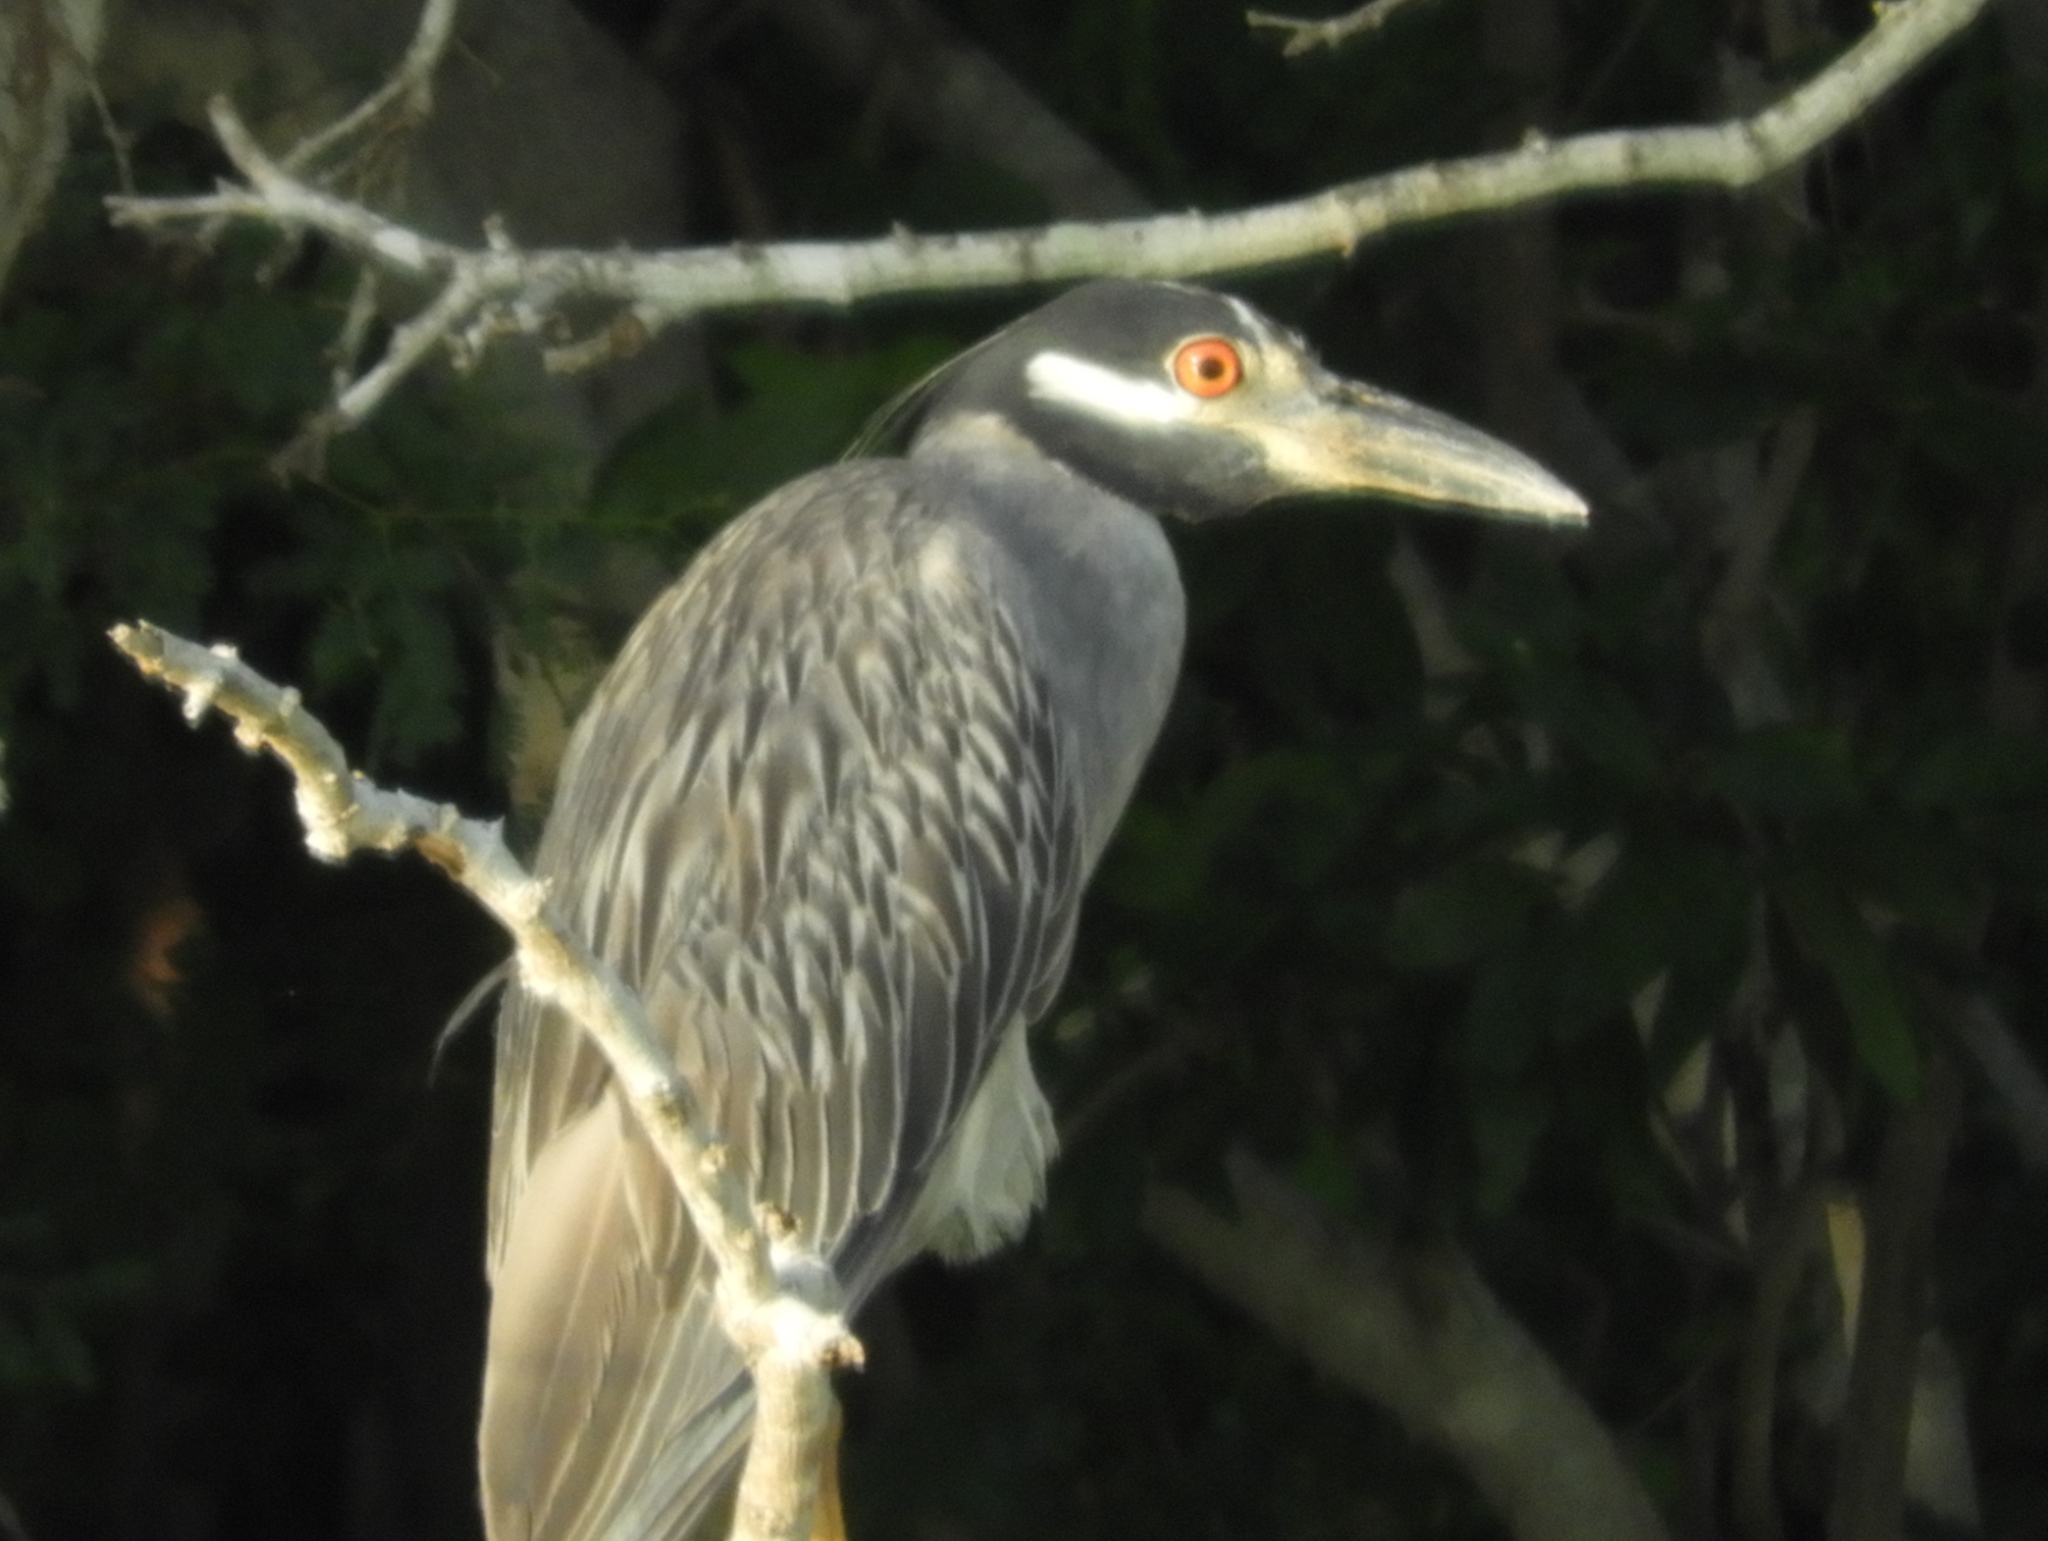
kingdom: Animalia
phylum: Chordata
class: Aves
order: Pelecaniformes
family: Ardeidae
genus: Nyctanassa
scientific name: Nyctanassa violacea
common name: Yellow-crowned night heron
